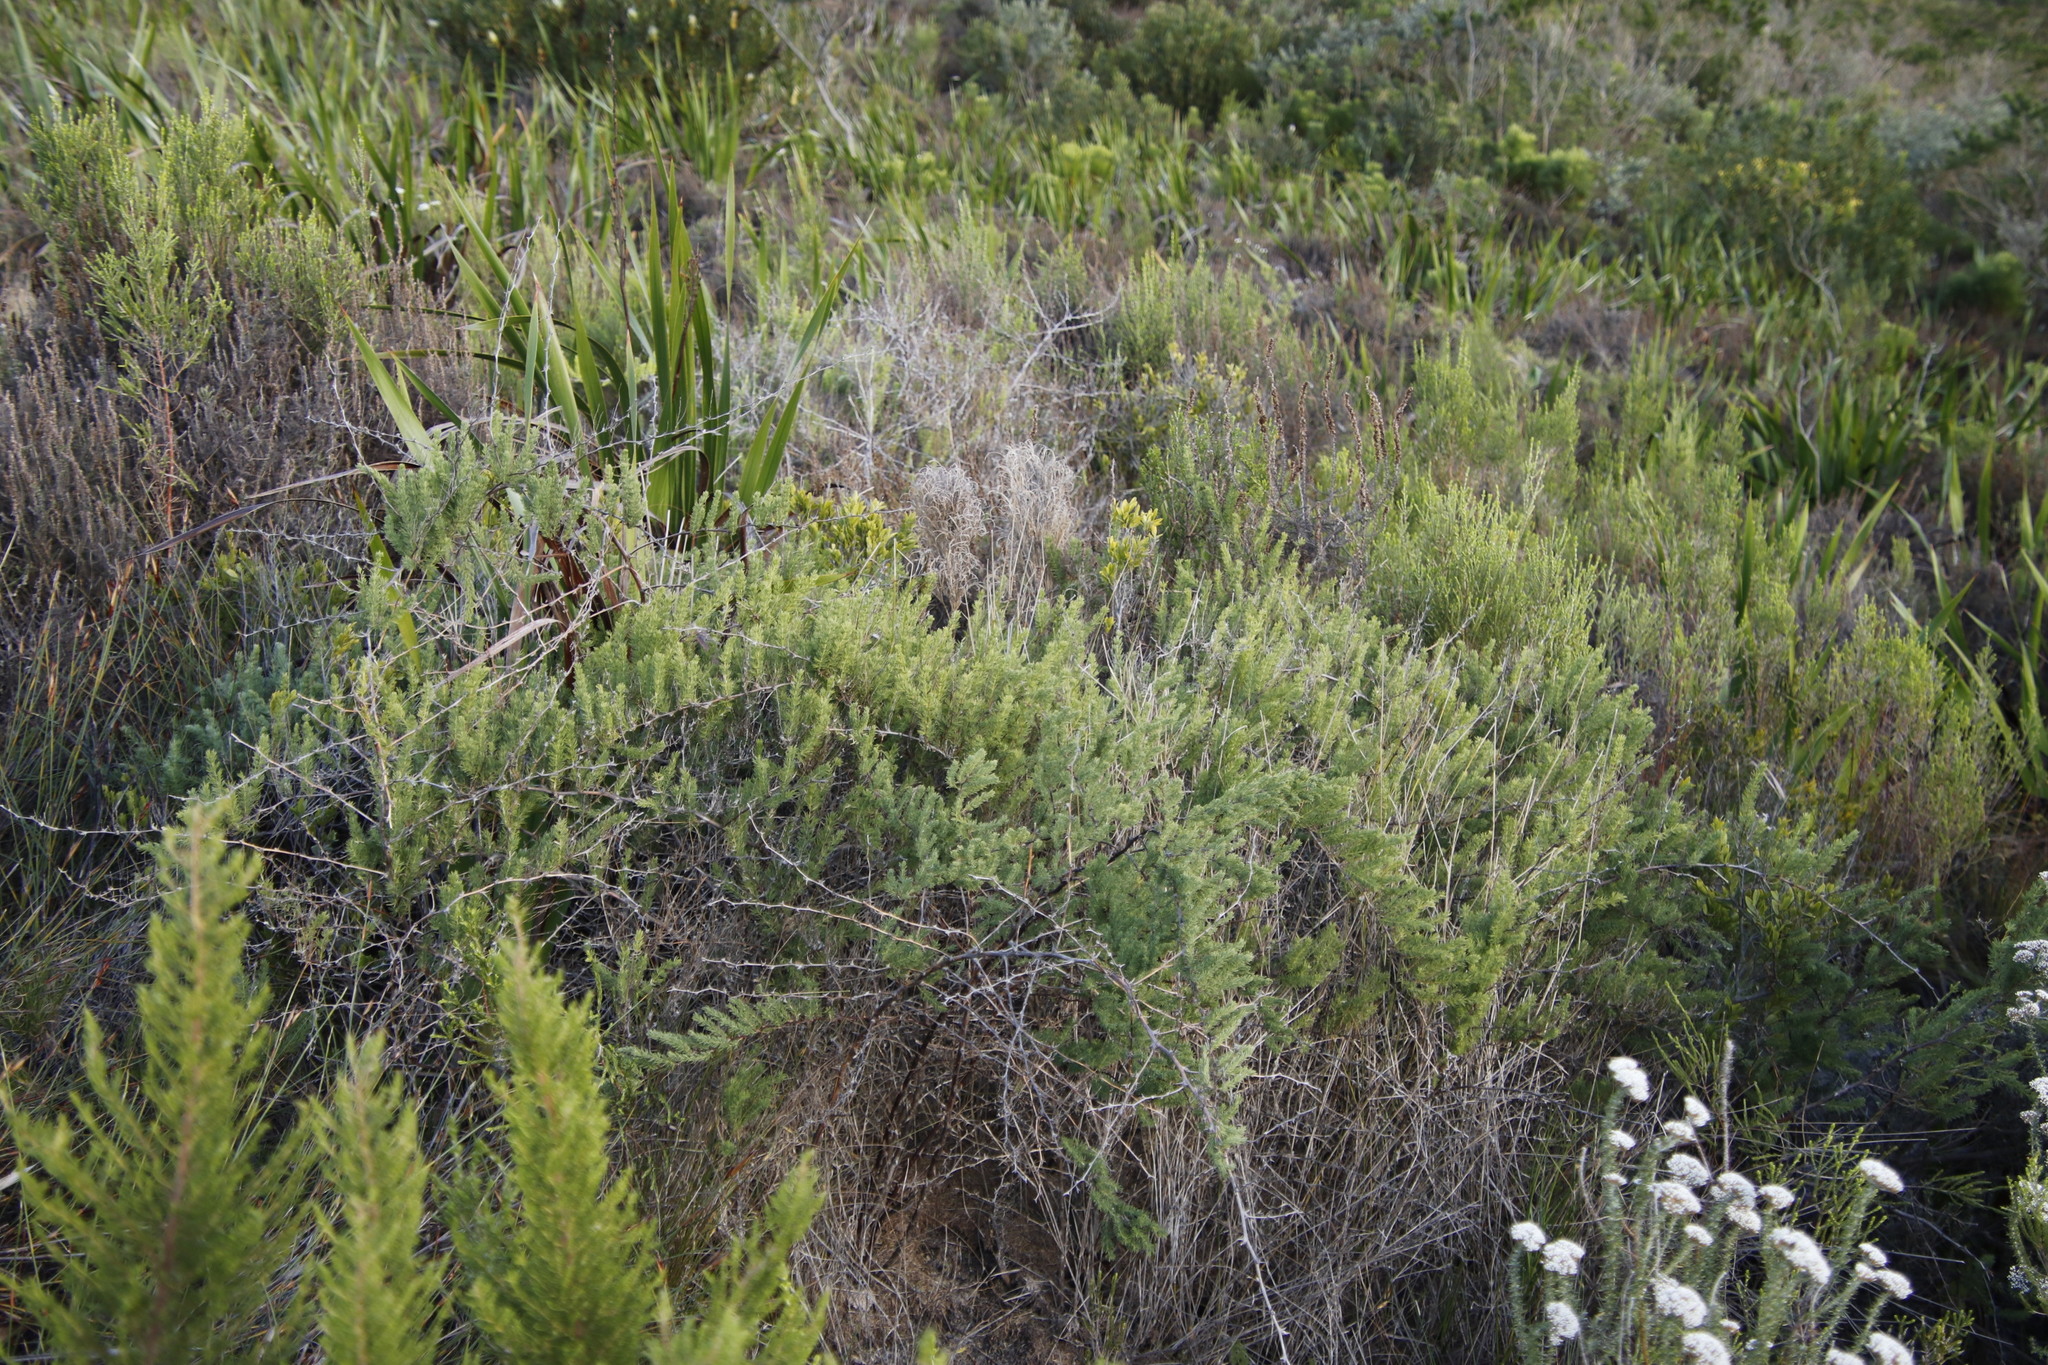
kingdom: Plantae
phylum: Tracheophyta
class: Liliopsida
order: Asparagales
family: Asparagaceae
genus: Asparagus
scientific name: Asparagus rubicundus
